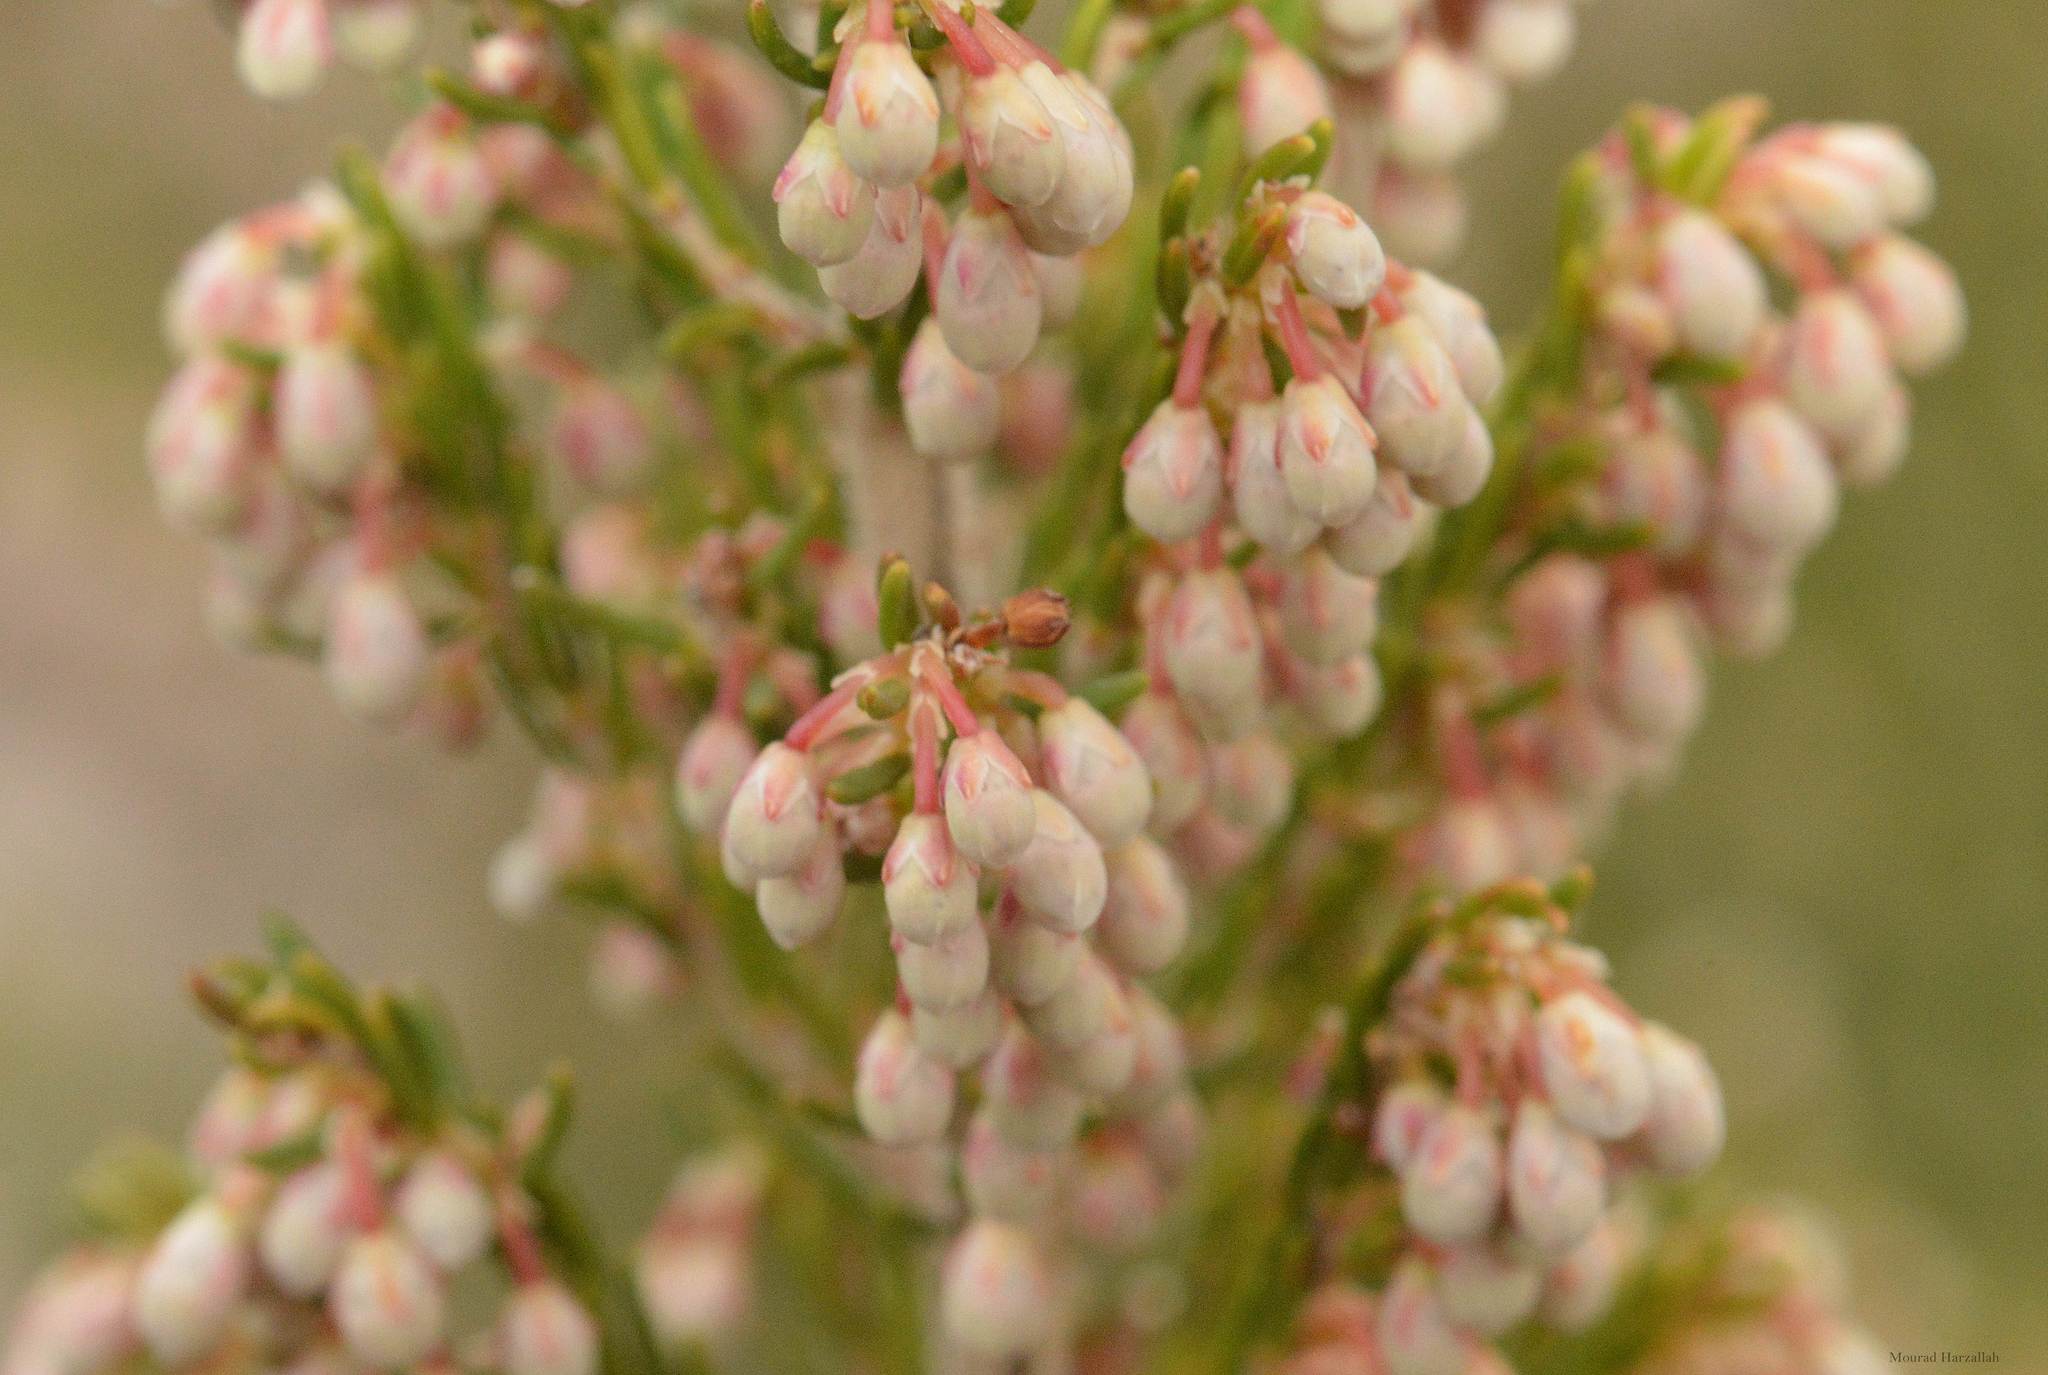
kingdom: Plantae
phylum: Tracheophyta
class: Magnoliopsida
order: Ericales
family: Ericaceae
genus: Erica
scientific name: Erica arborea
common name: Tree heath
